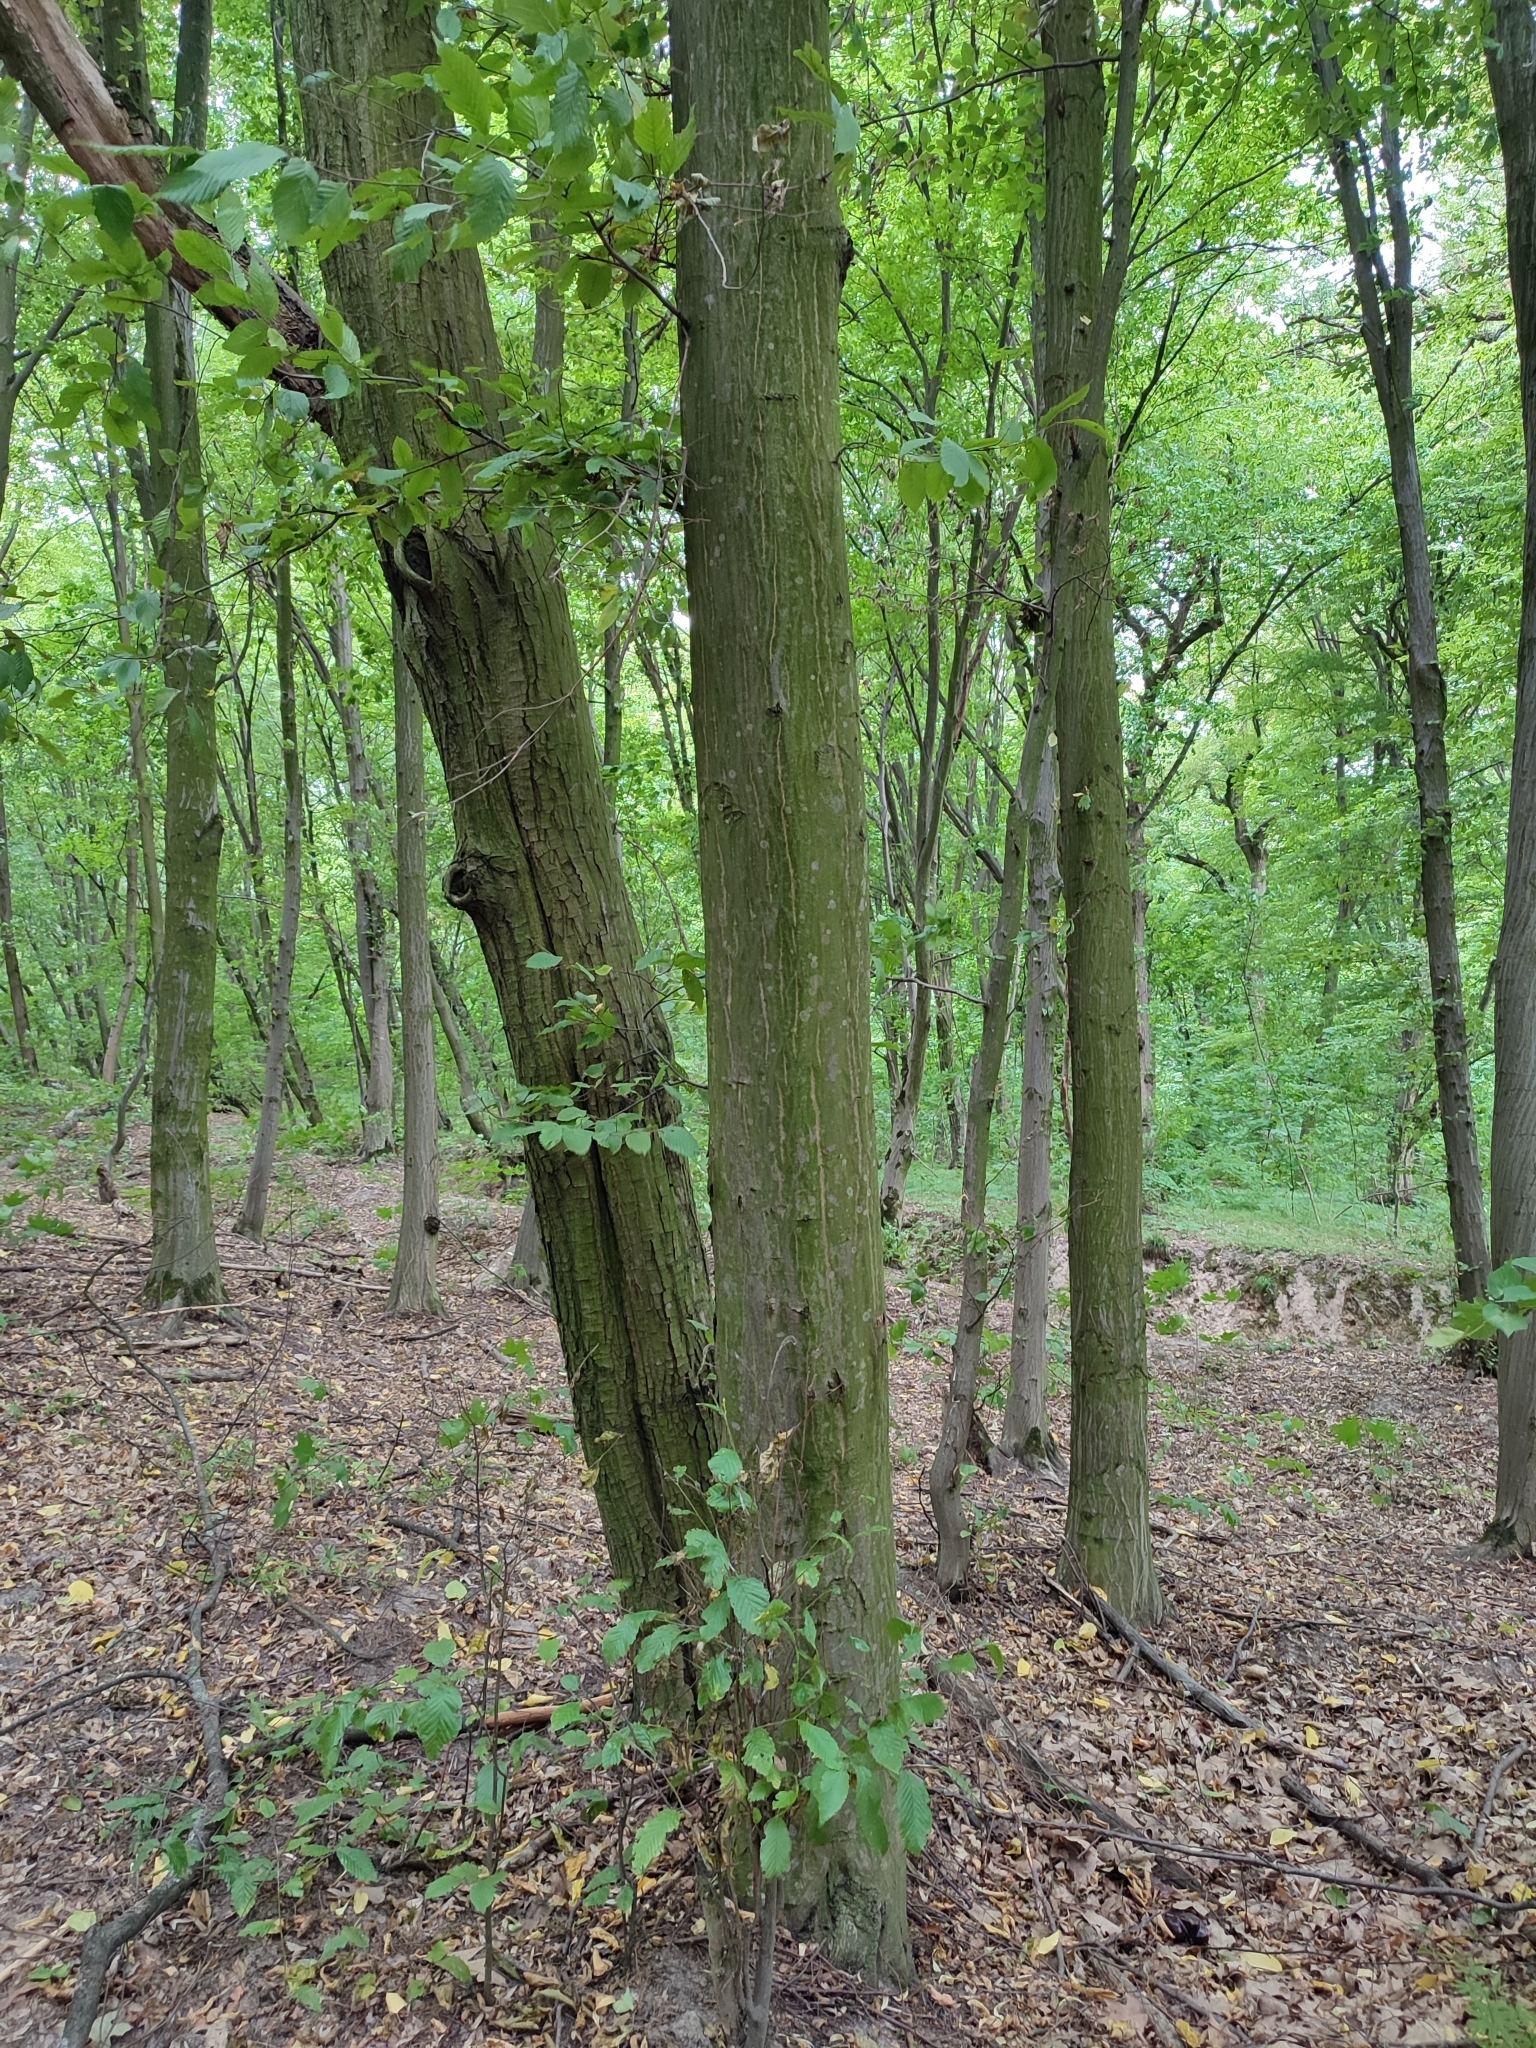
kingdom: Plantae
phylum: Tracheophyta
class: Magnoliopsida
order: Fagales
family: Betulaceae
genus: Carpinus
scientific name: Carpinus betulus
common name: Hornbeam
